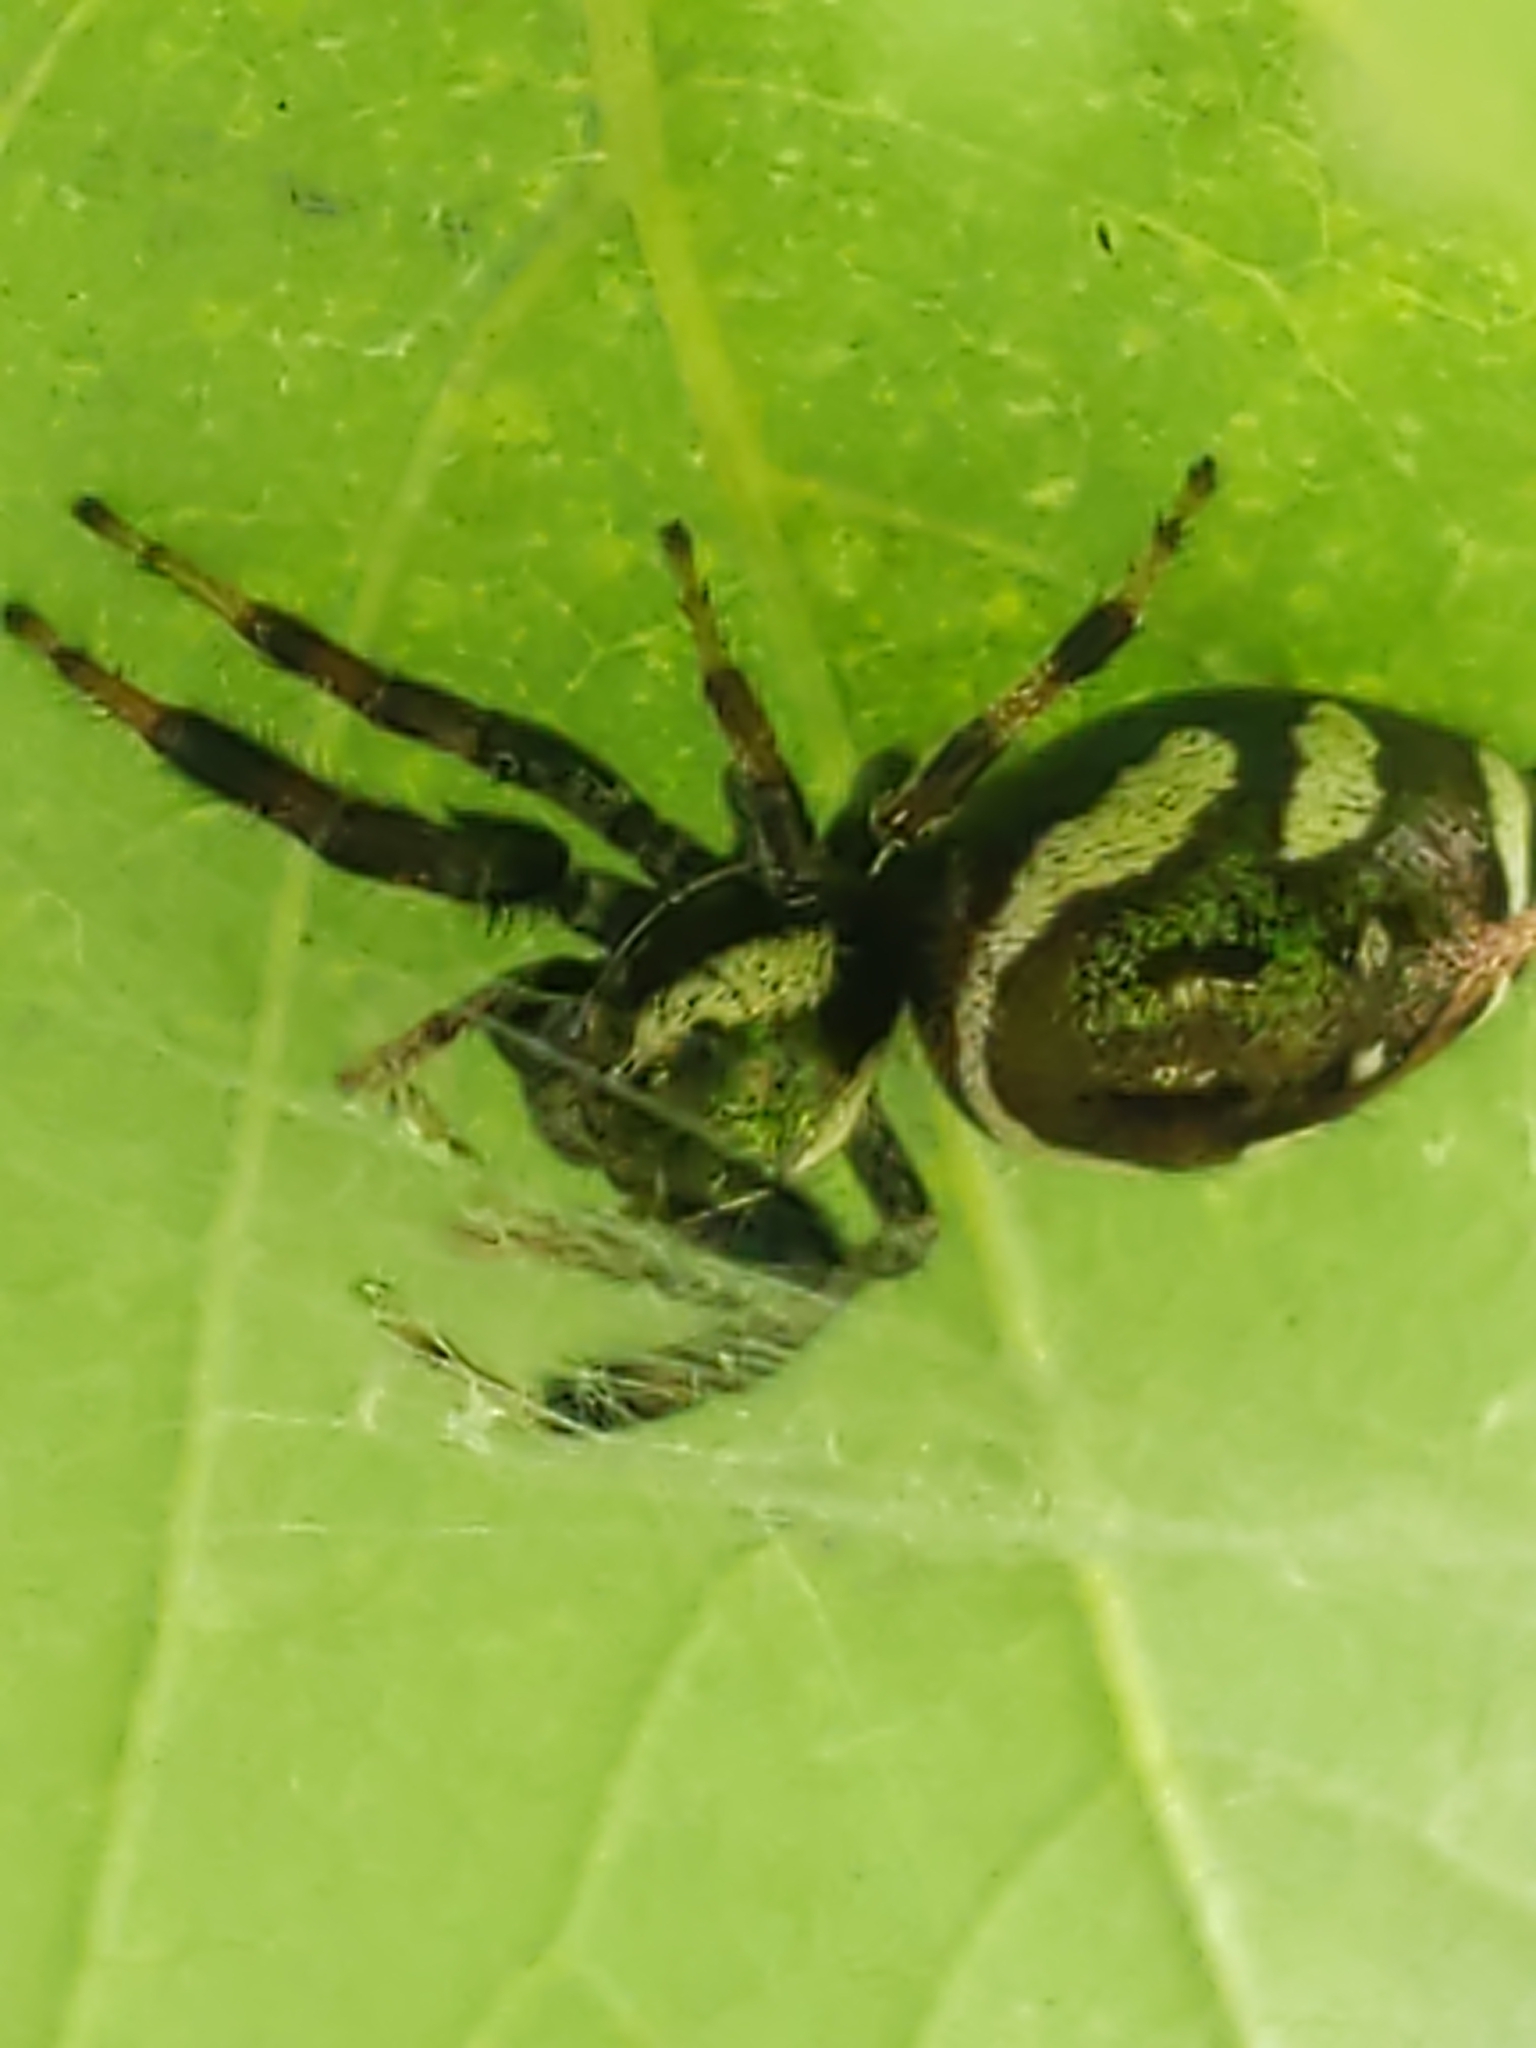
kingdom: Animalia
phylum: Arthropoda
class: Arachnida
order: Araneae
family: Salticidae
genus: Paraphidippus
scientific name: Paraphidippus aurantius
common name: Jumping spiders
